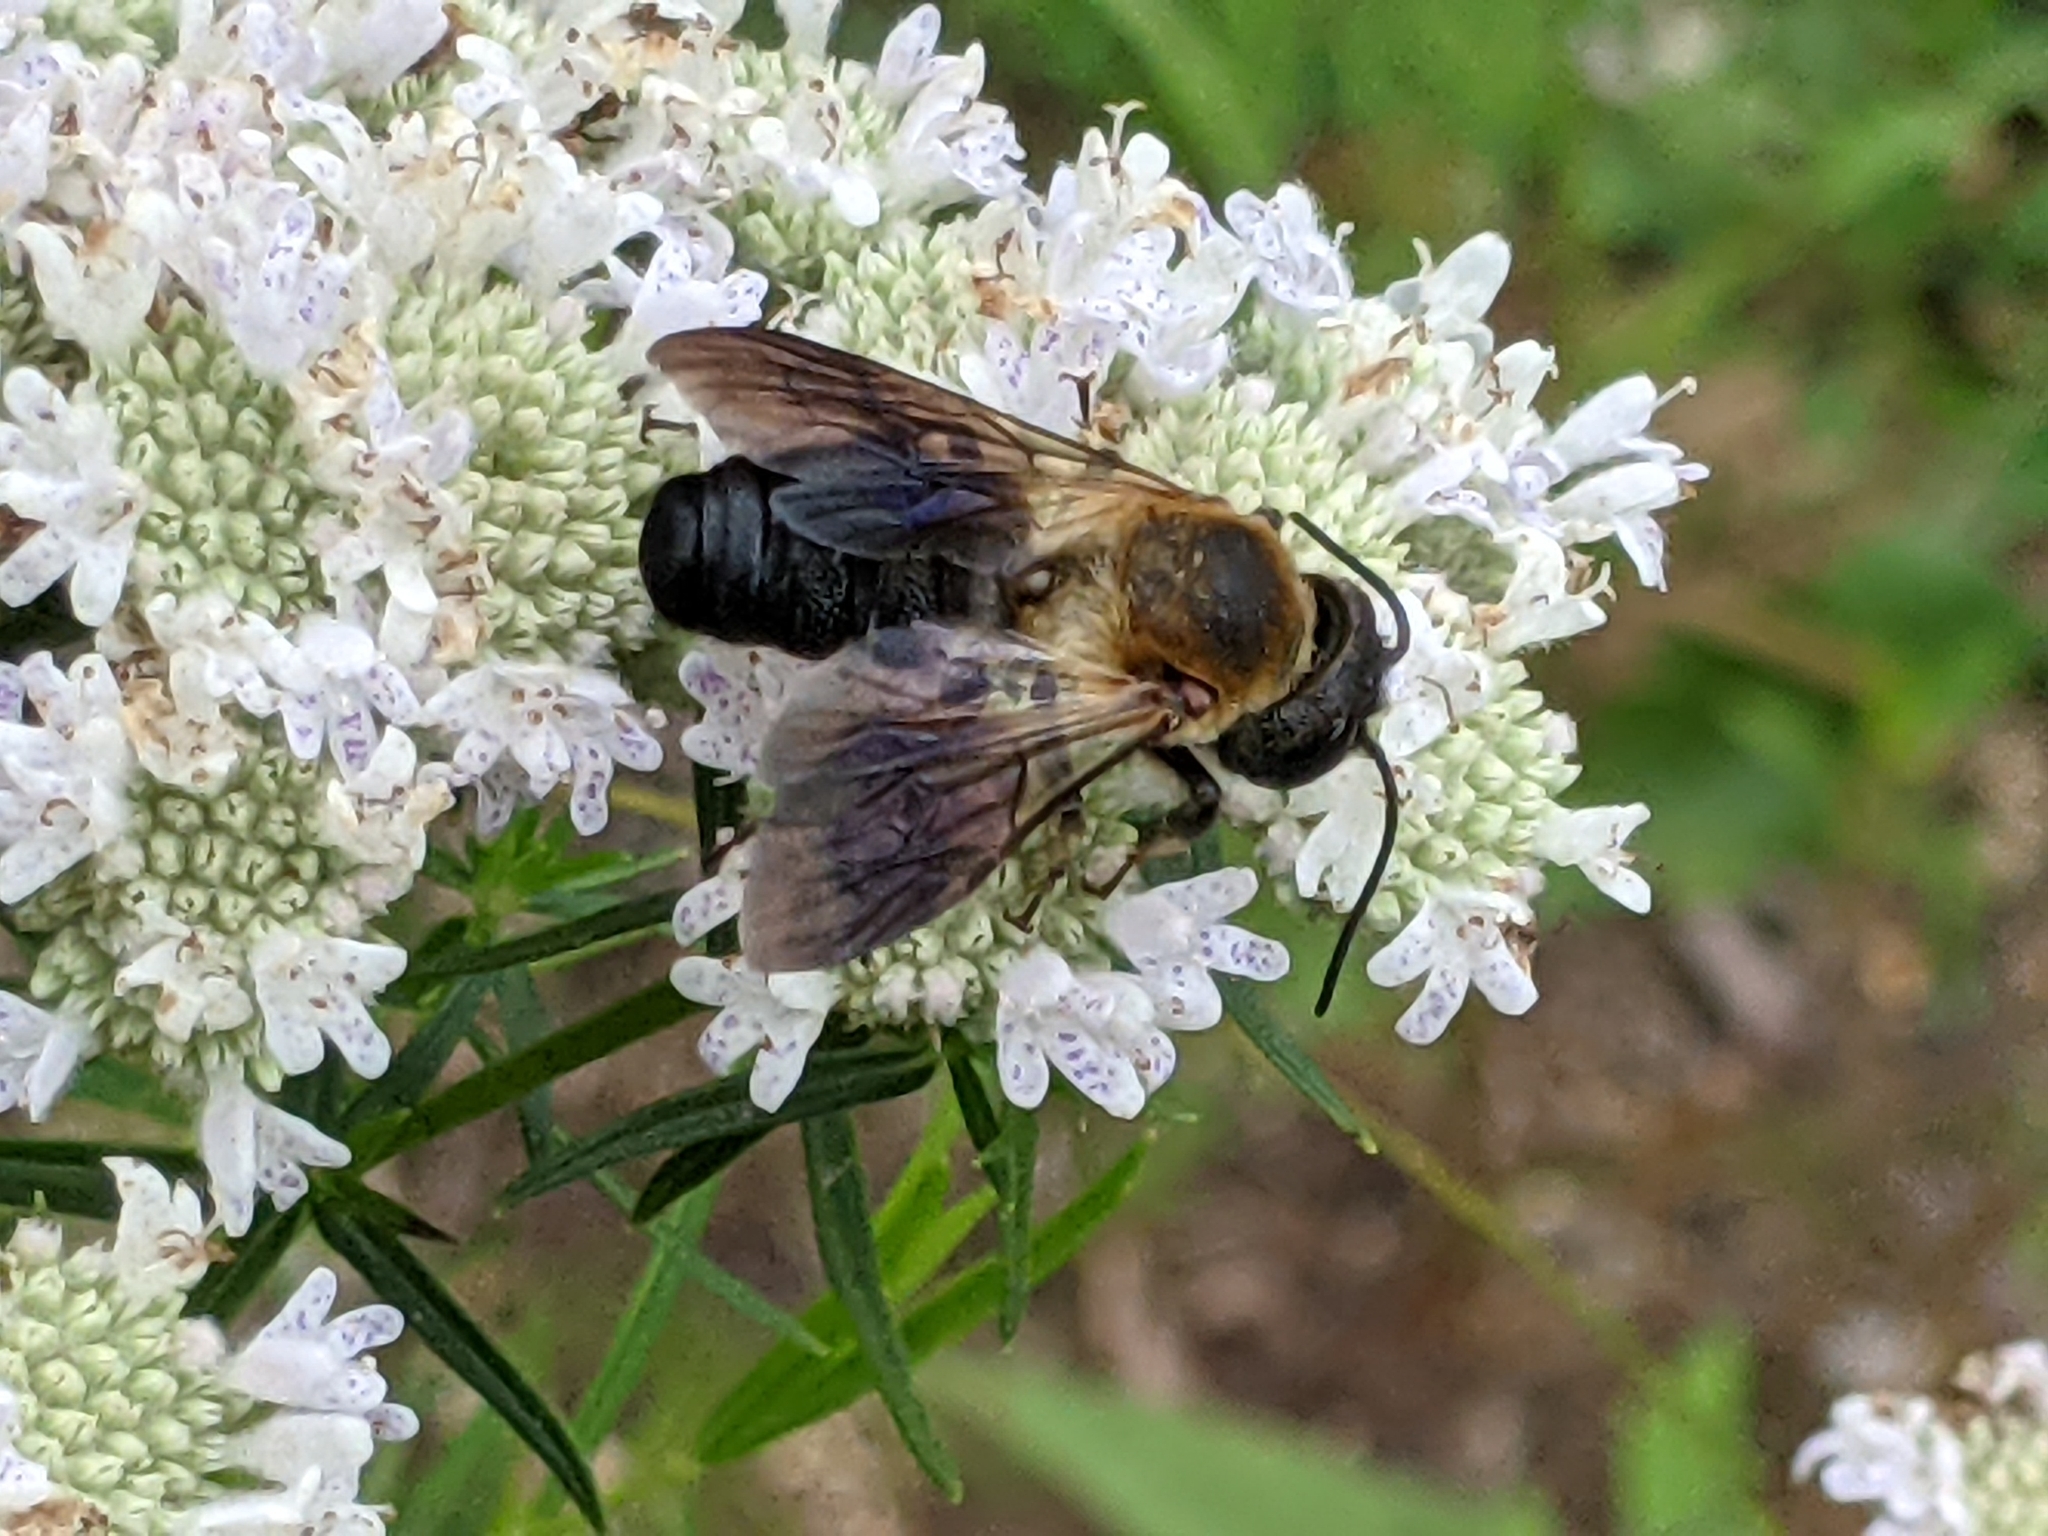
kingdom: Animalia
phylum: Arthropoda
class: Insecta
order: Hymenoptera
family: Megachilidae
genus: Megachile
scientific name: Megachile sculpturalis
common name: Sculptured resin bee
